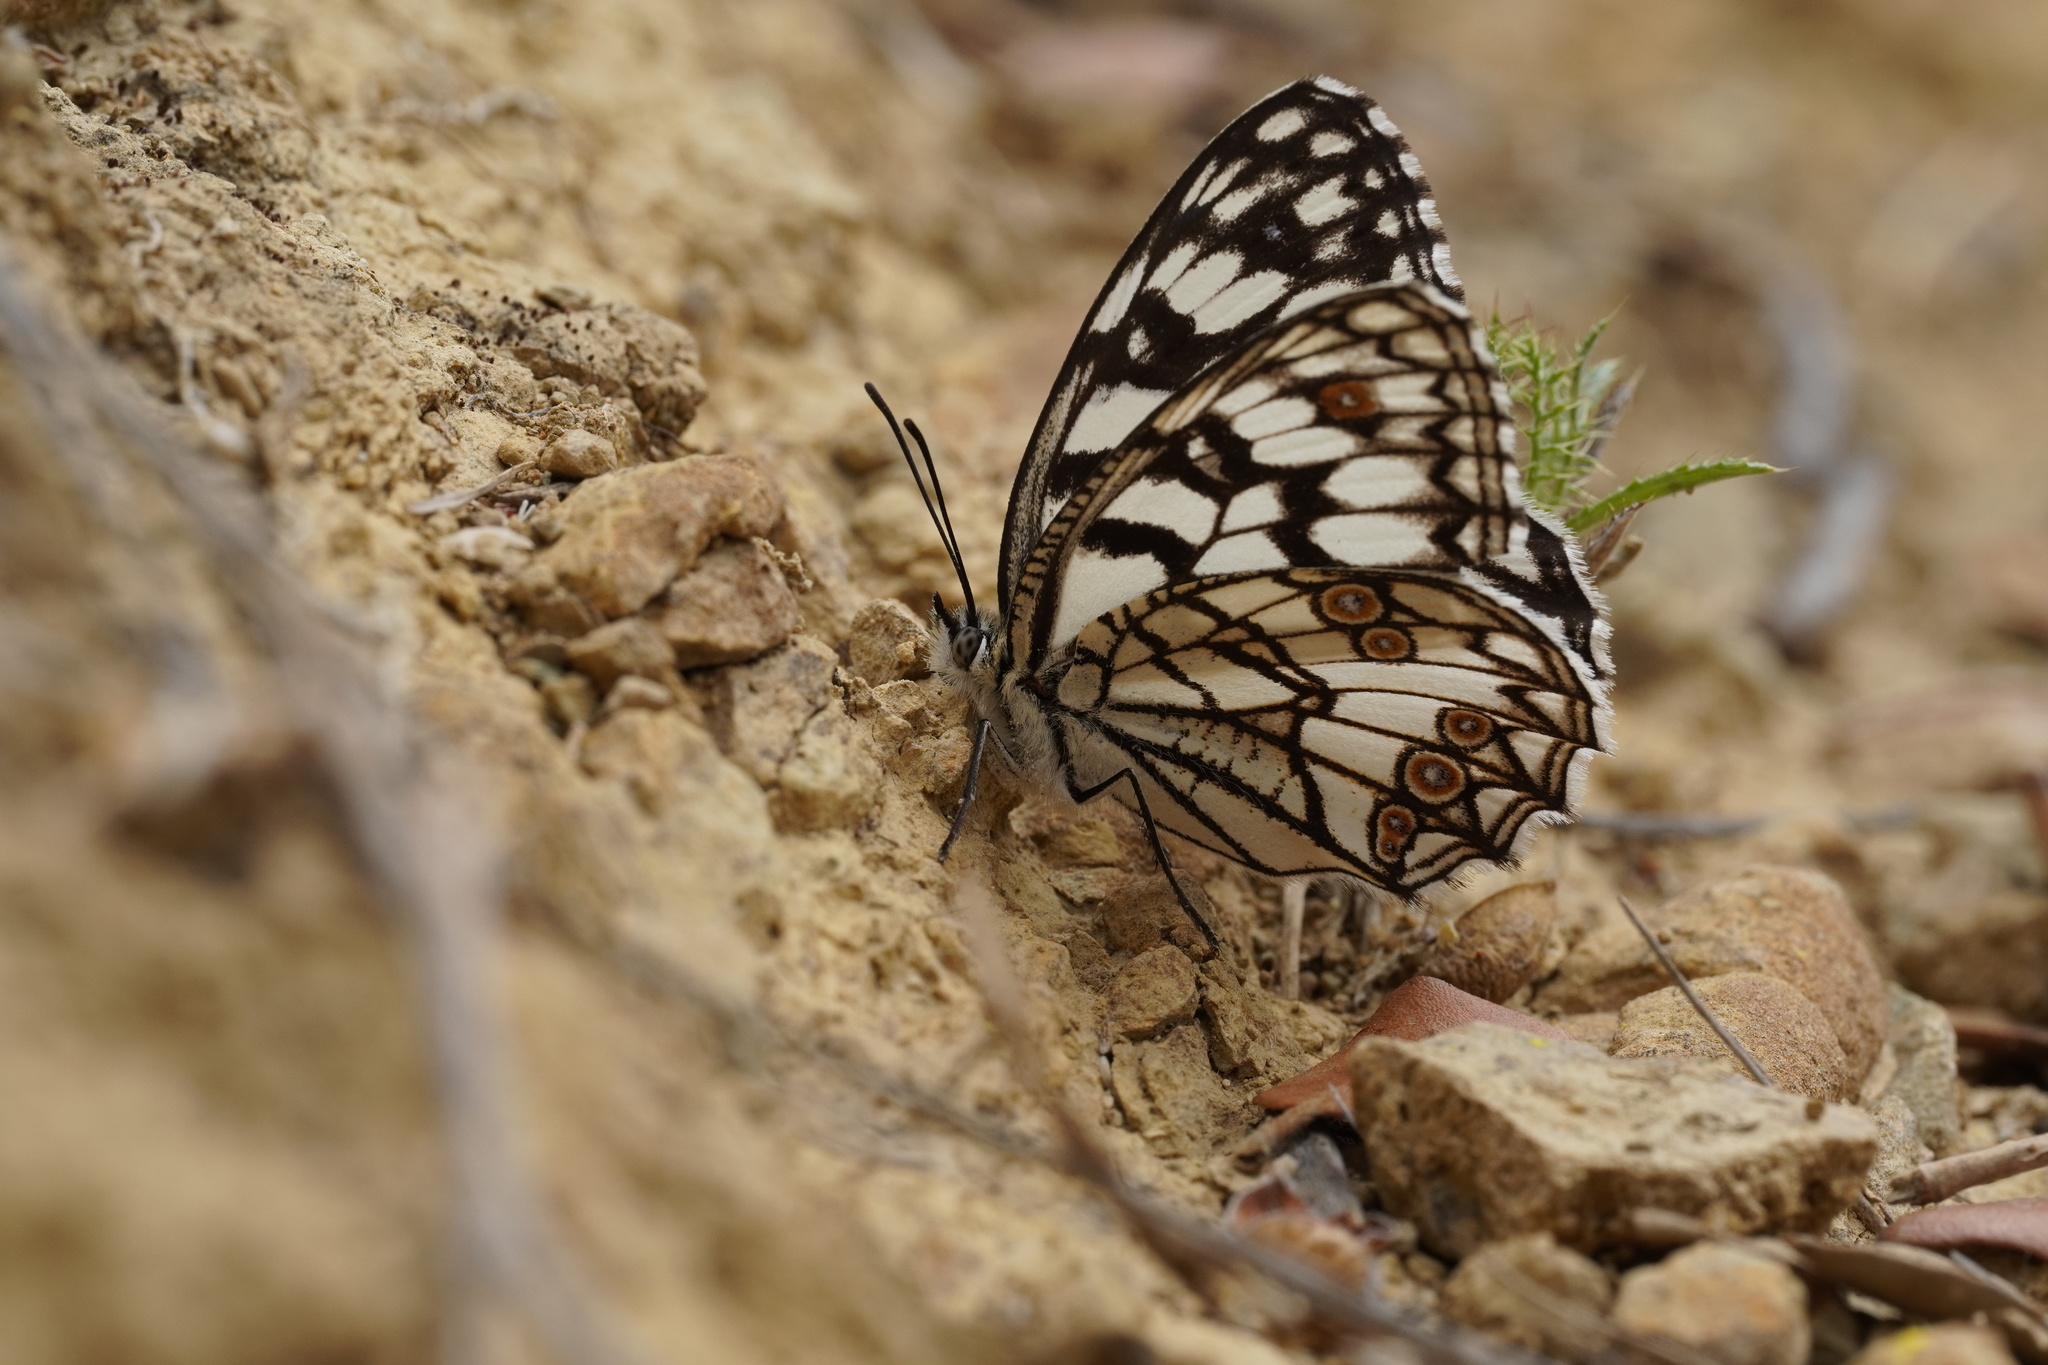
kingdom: Animalia
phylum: Arthropoda
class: Insecta
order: Lepidoptera
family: Nymphalidae
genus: Melanargia
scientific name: Melanargia ines
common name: Spanish marbled white
